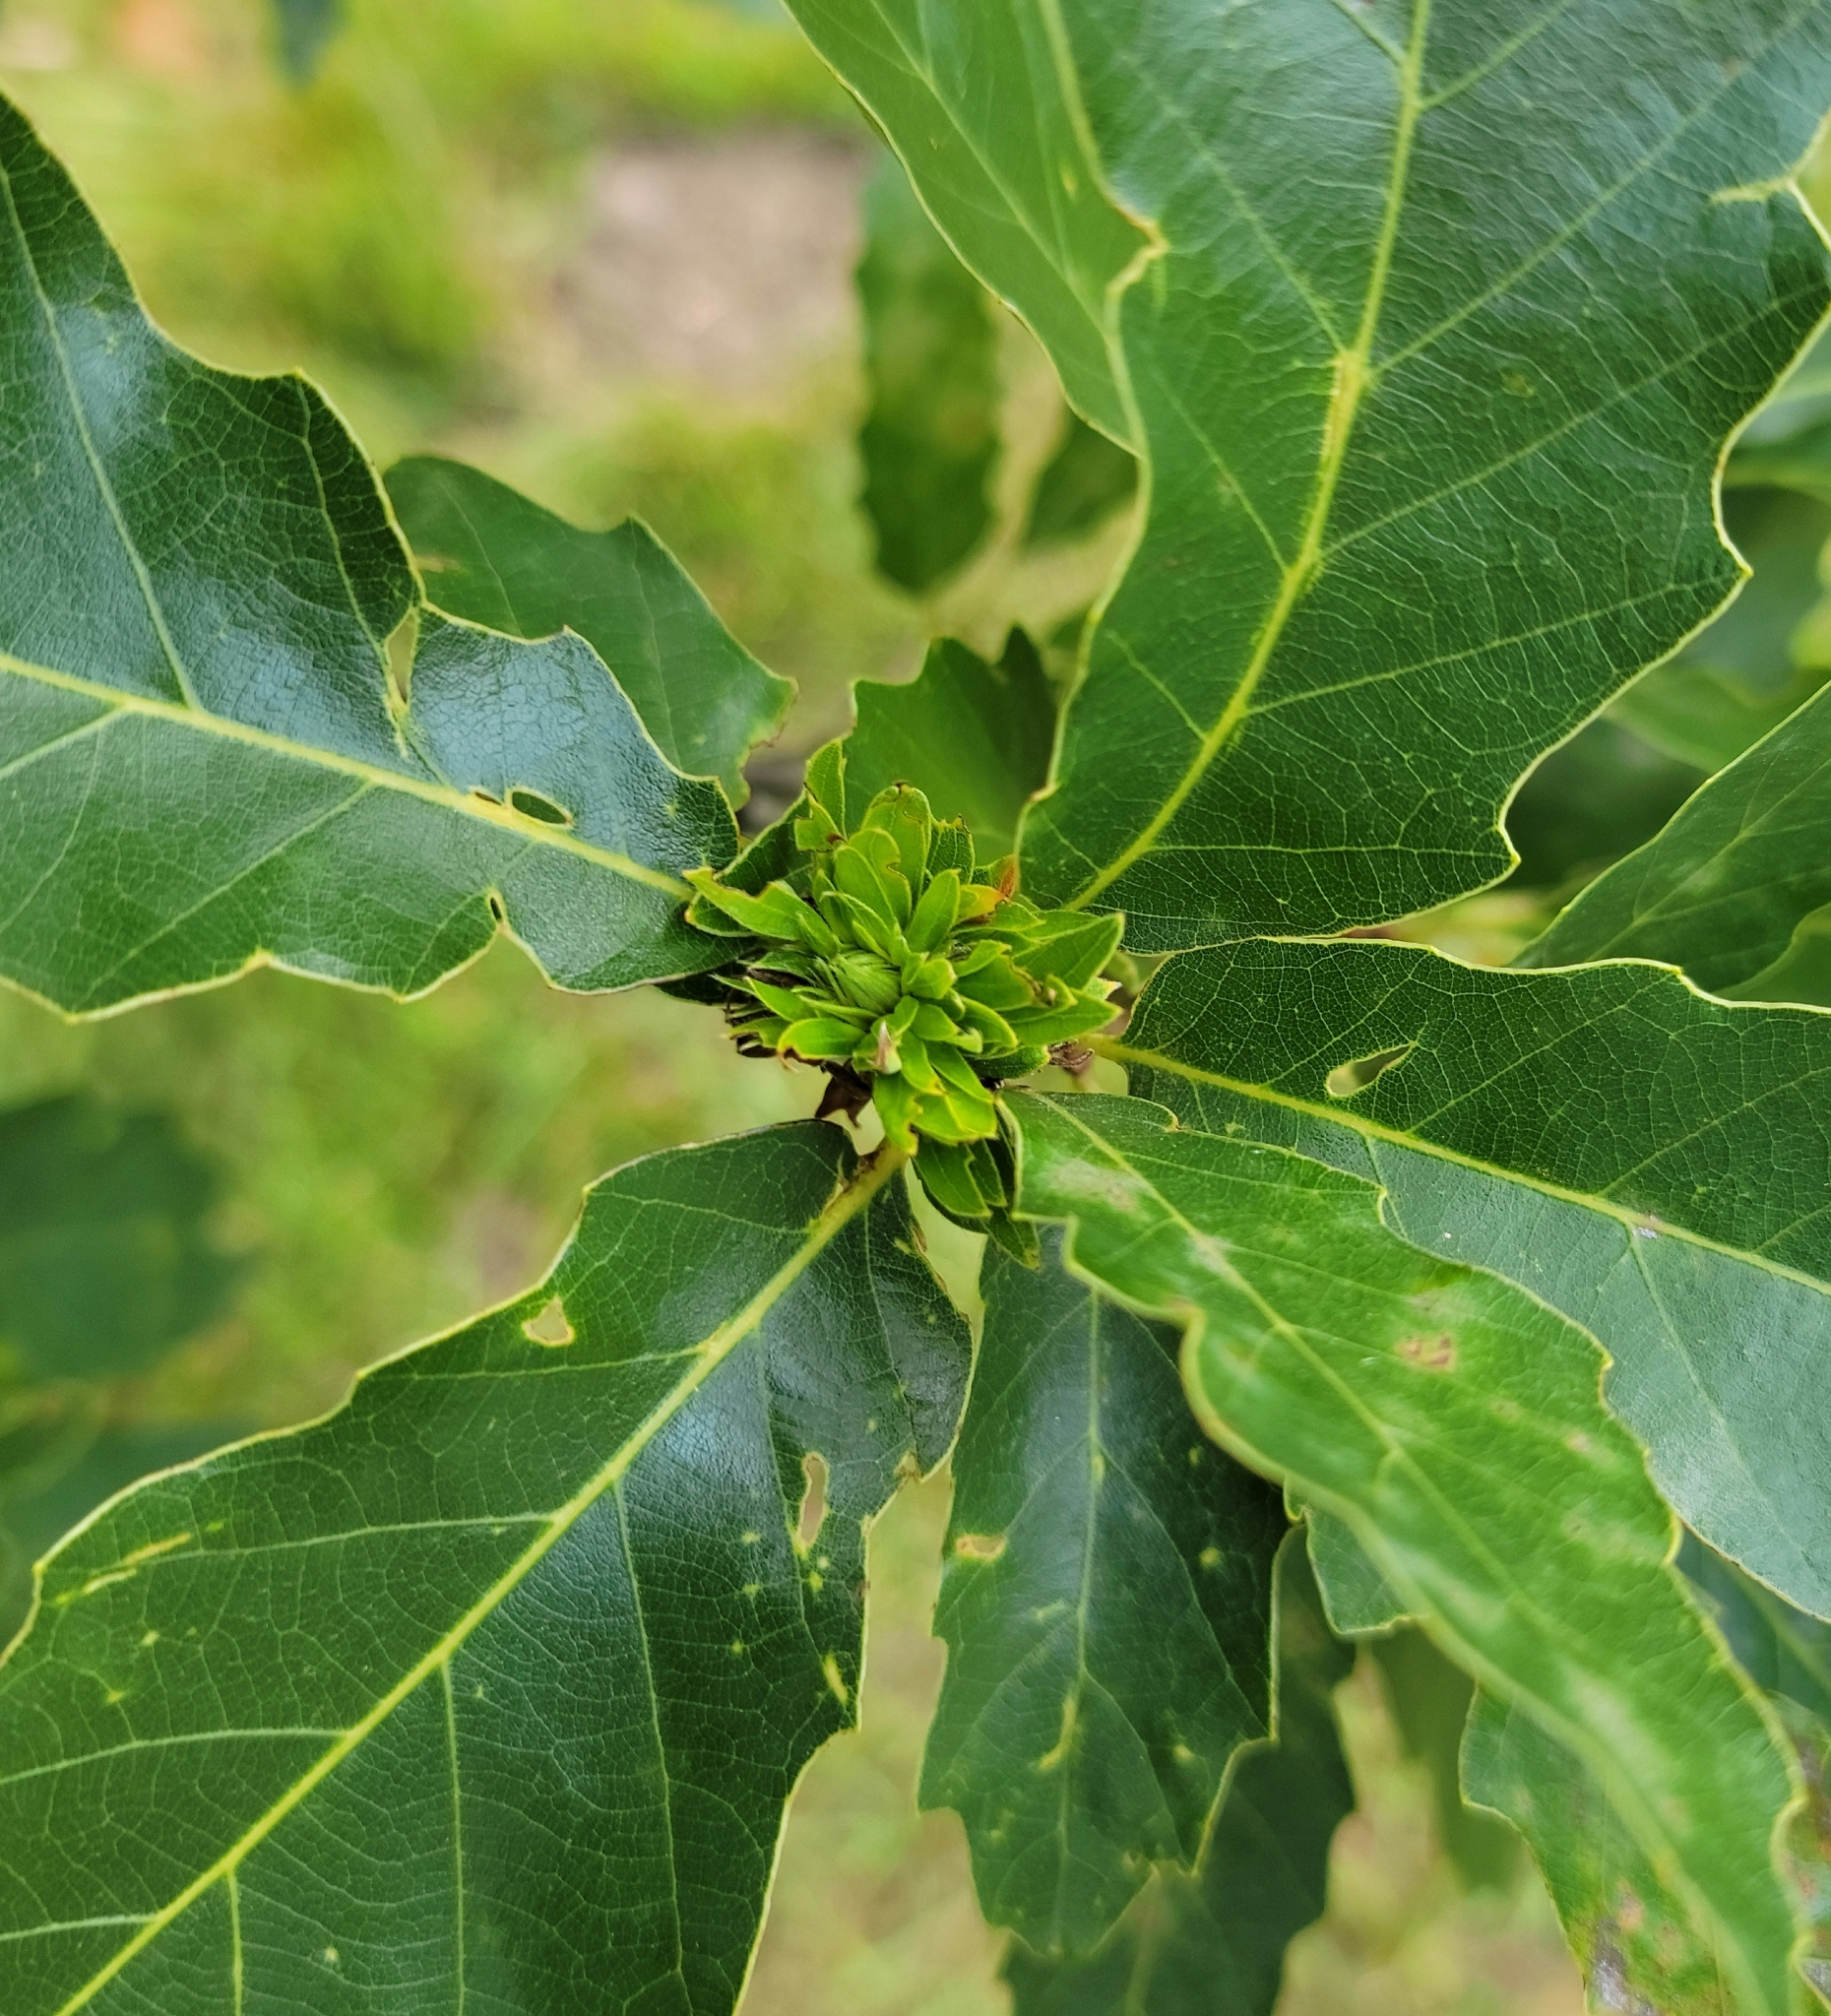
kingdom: Animalia
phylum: Arthropoda
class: Insecta
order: Hymenoptera
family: Cynipidae
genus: Andricus
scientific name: Andricus
